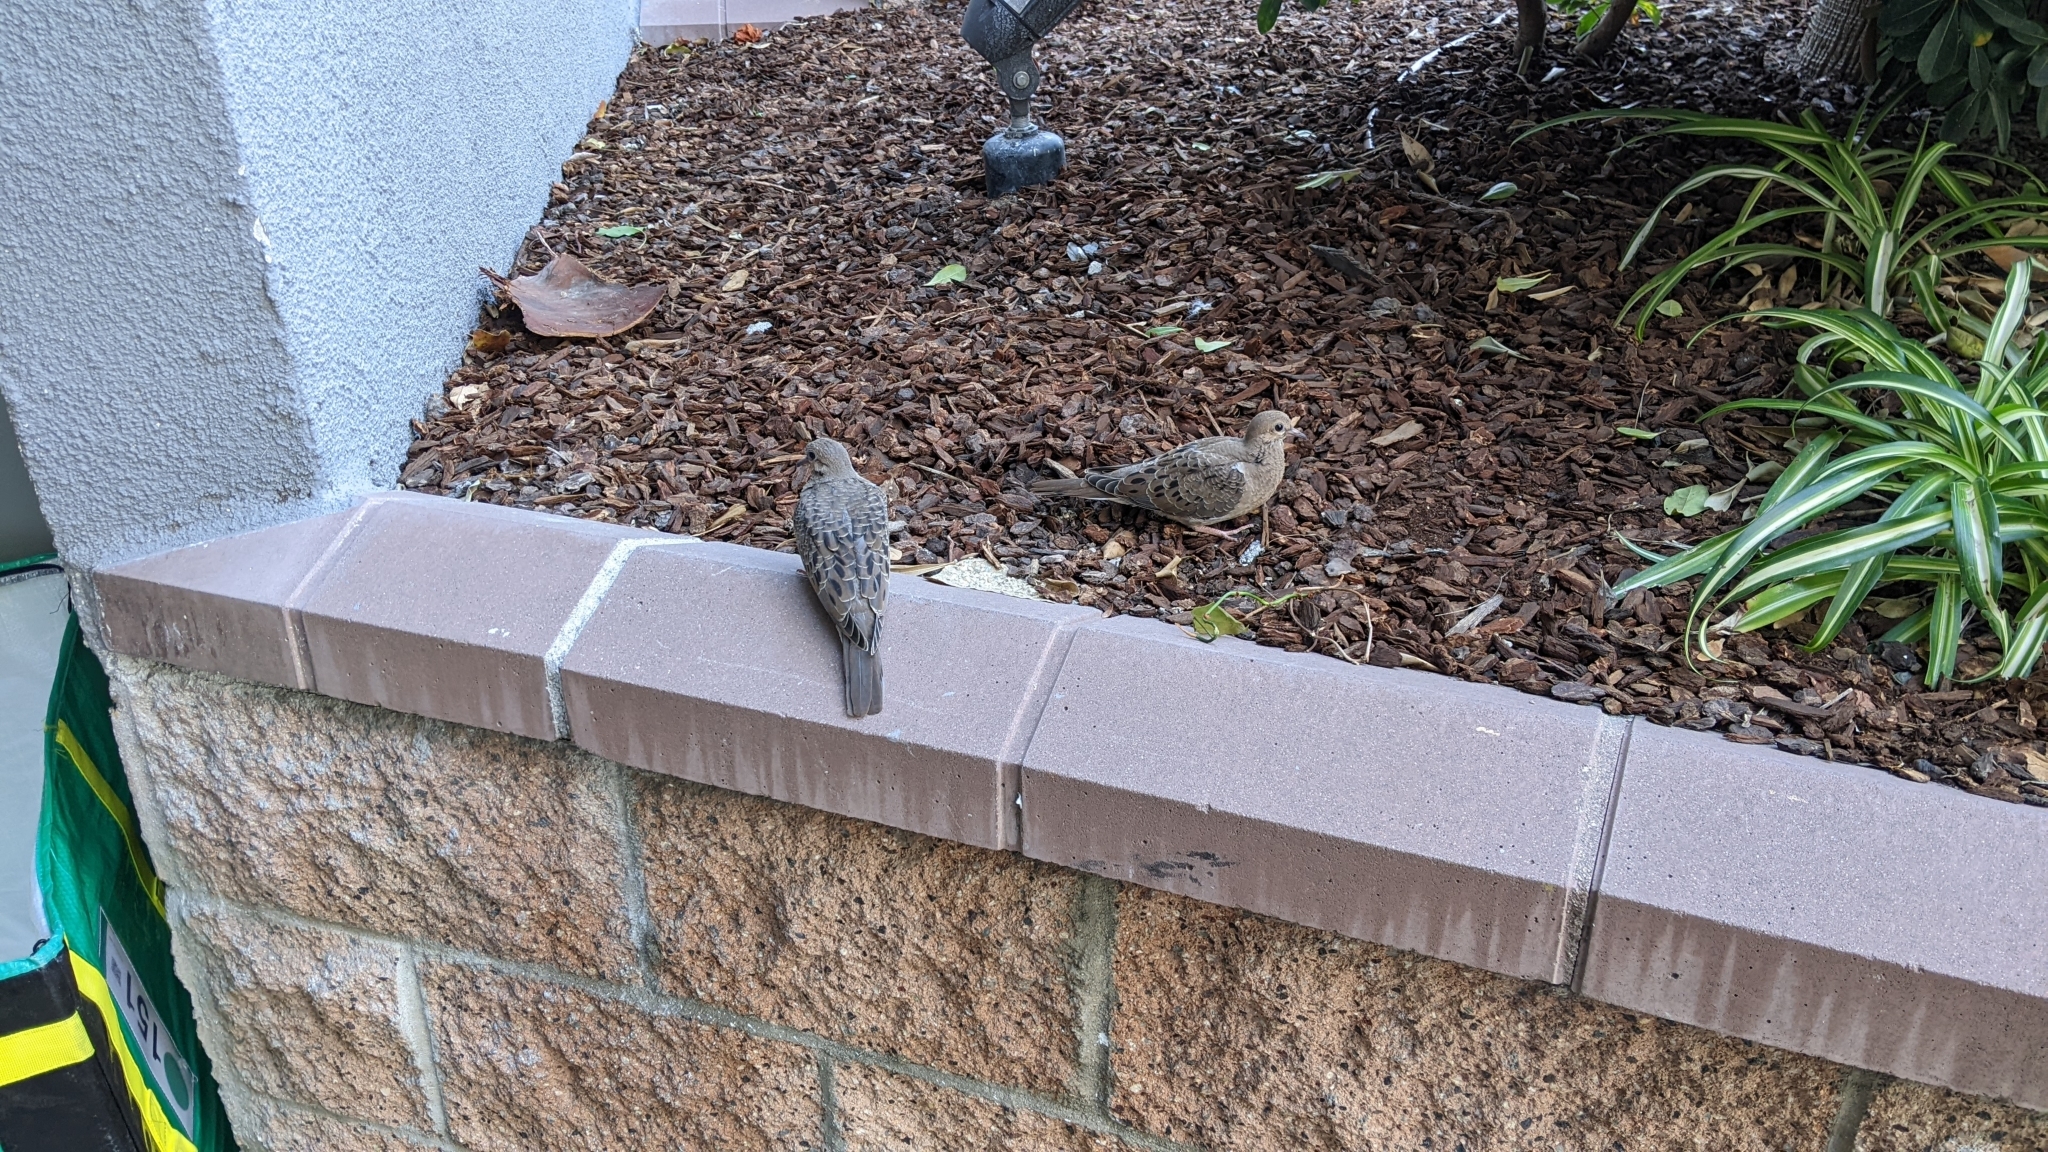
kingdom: Animalia
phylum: Chordata
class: Aves
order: Columbiformes
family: Columbidae
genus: Zenaida
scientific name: Zenaida macroura
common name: Mourning dove
